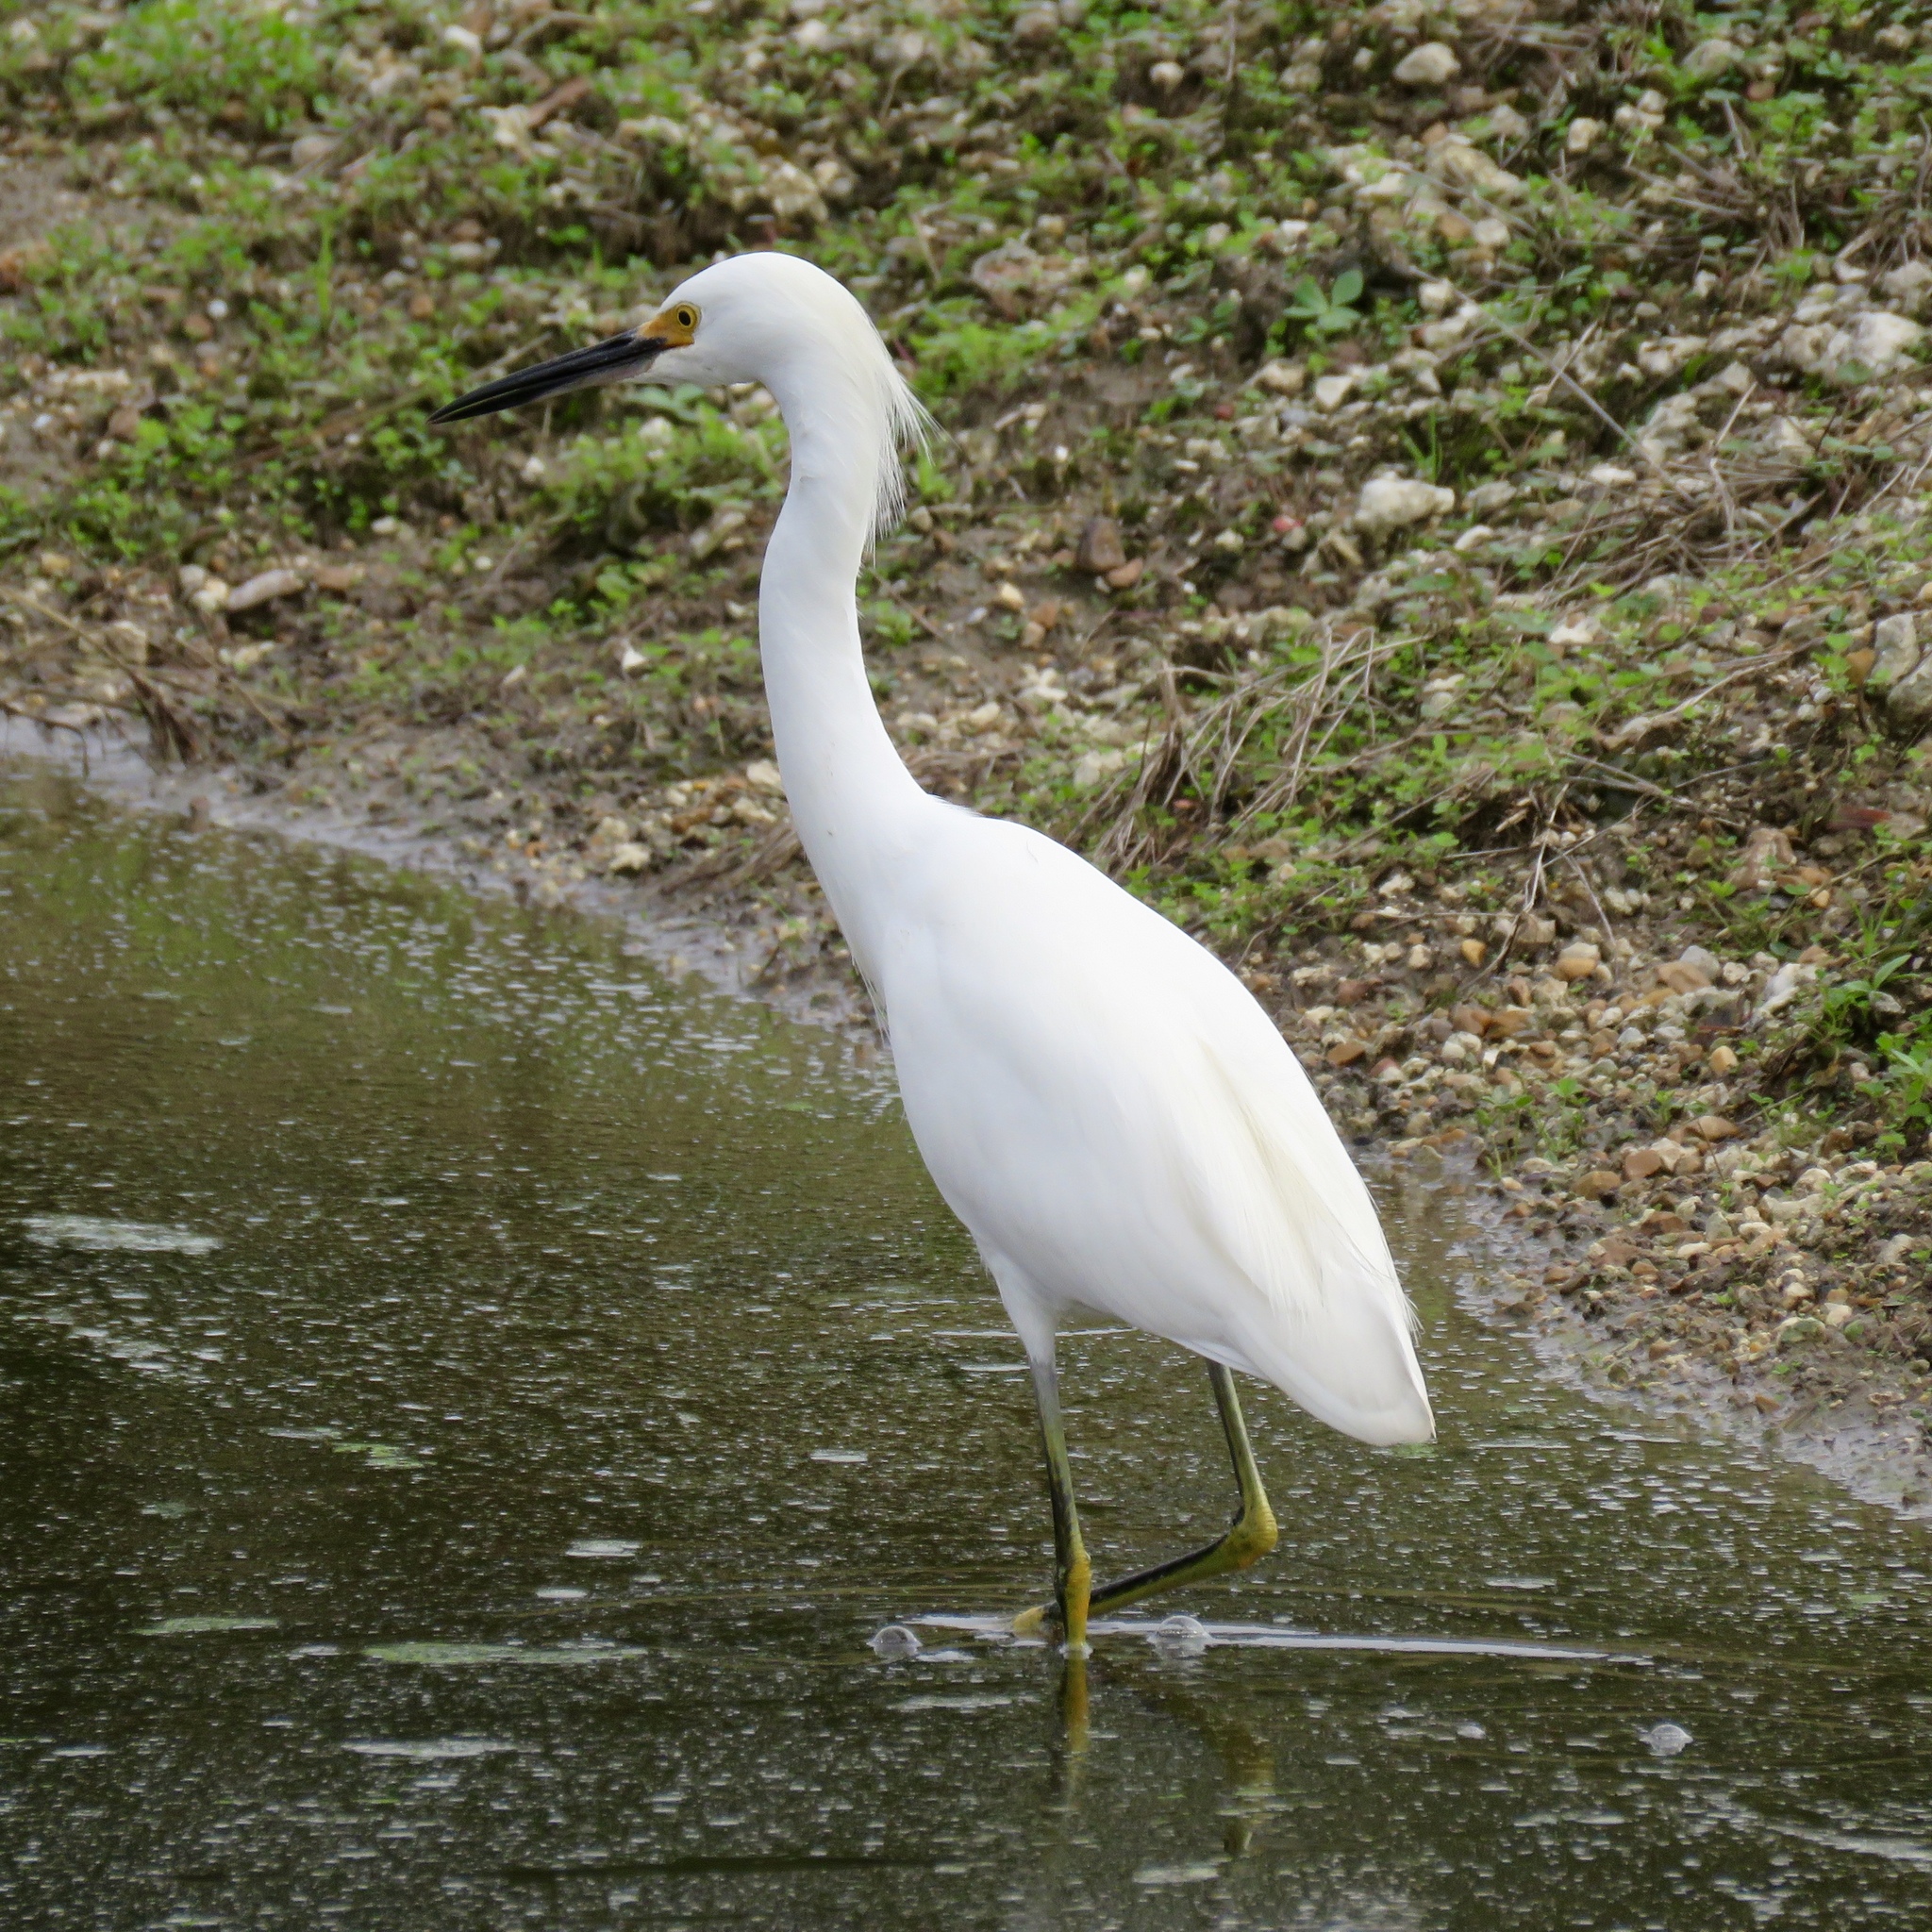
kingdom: Animalia
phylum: Chordata
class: Aves
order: Pelecaniformes
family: Ardeidae
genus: Egretta
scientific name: Egretta thula
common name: Snowy egret
